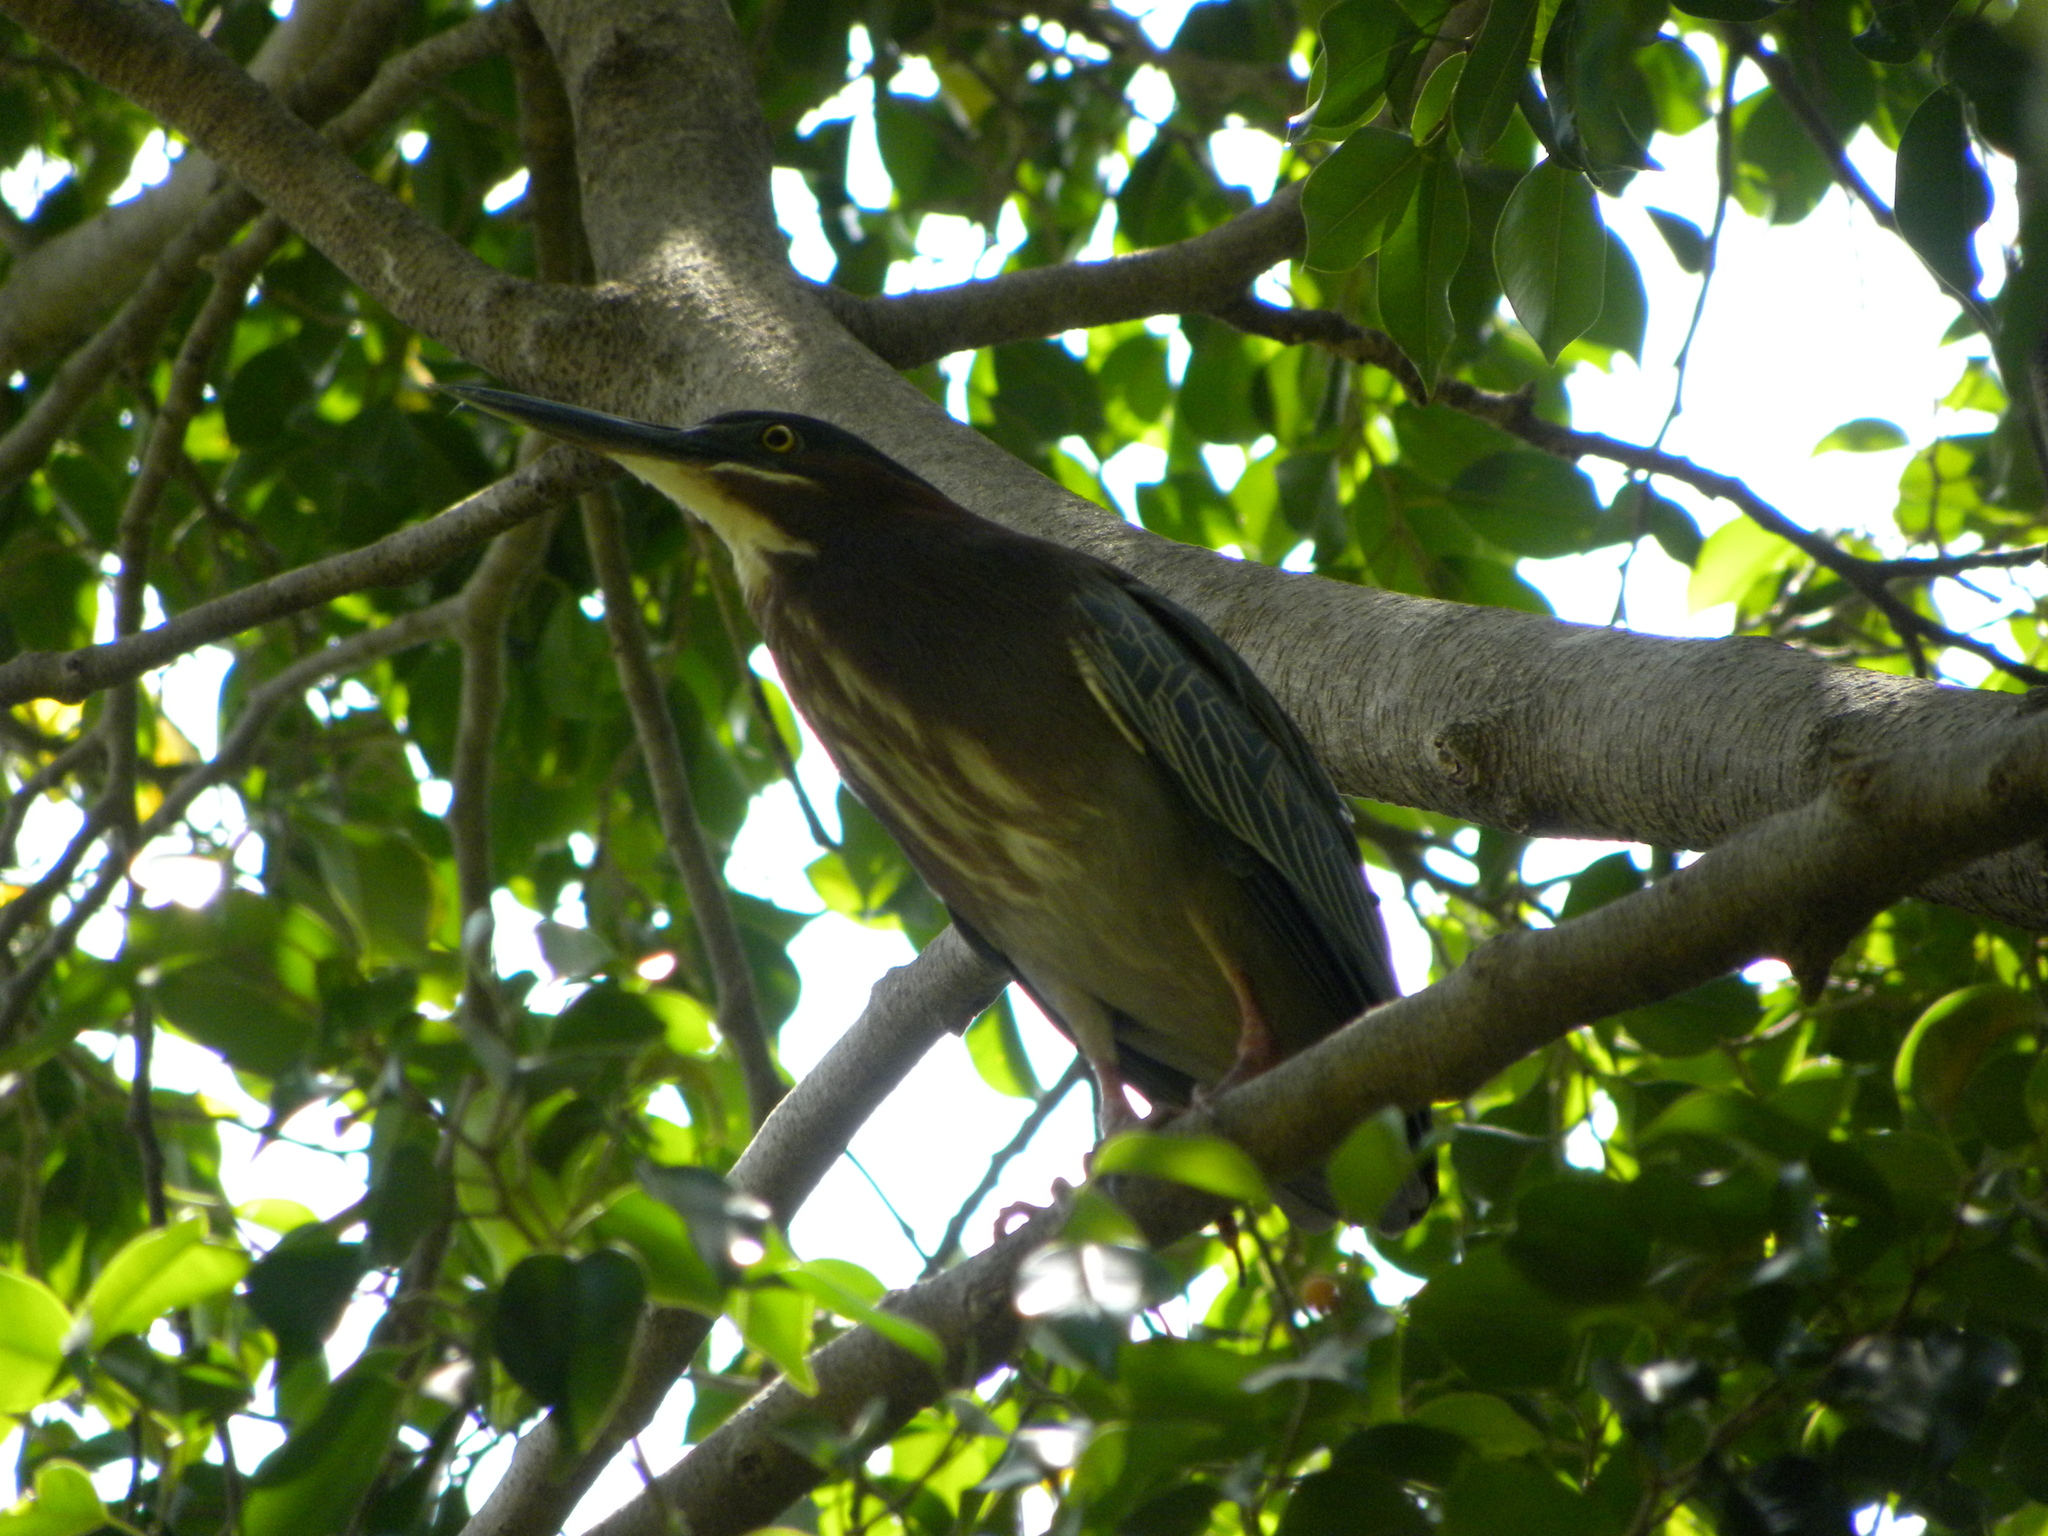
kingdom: Animalia
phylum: Chordata
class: Aves
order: Pelecaniformes
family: Ardeidae
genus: Butorides
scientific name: Butorides virescens
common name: Green heron
